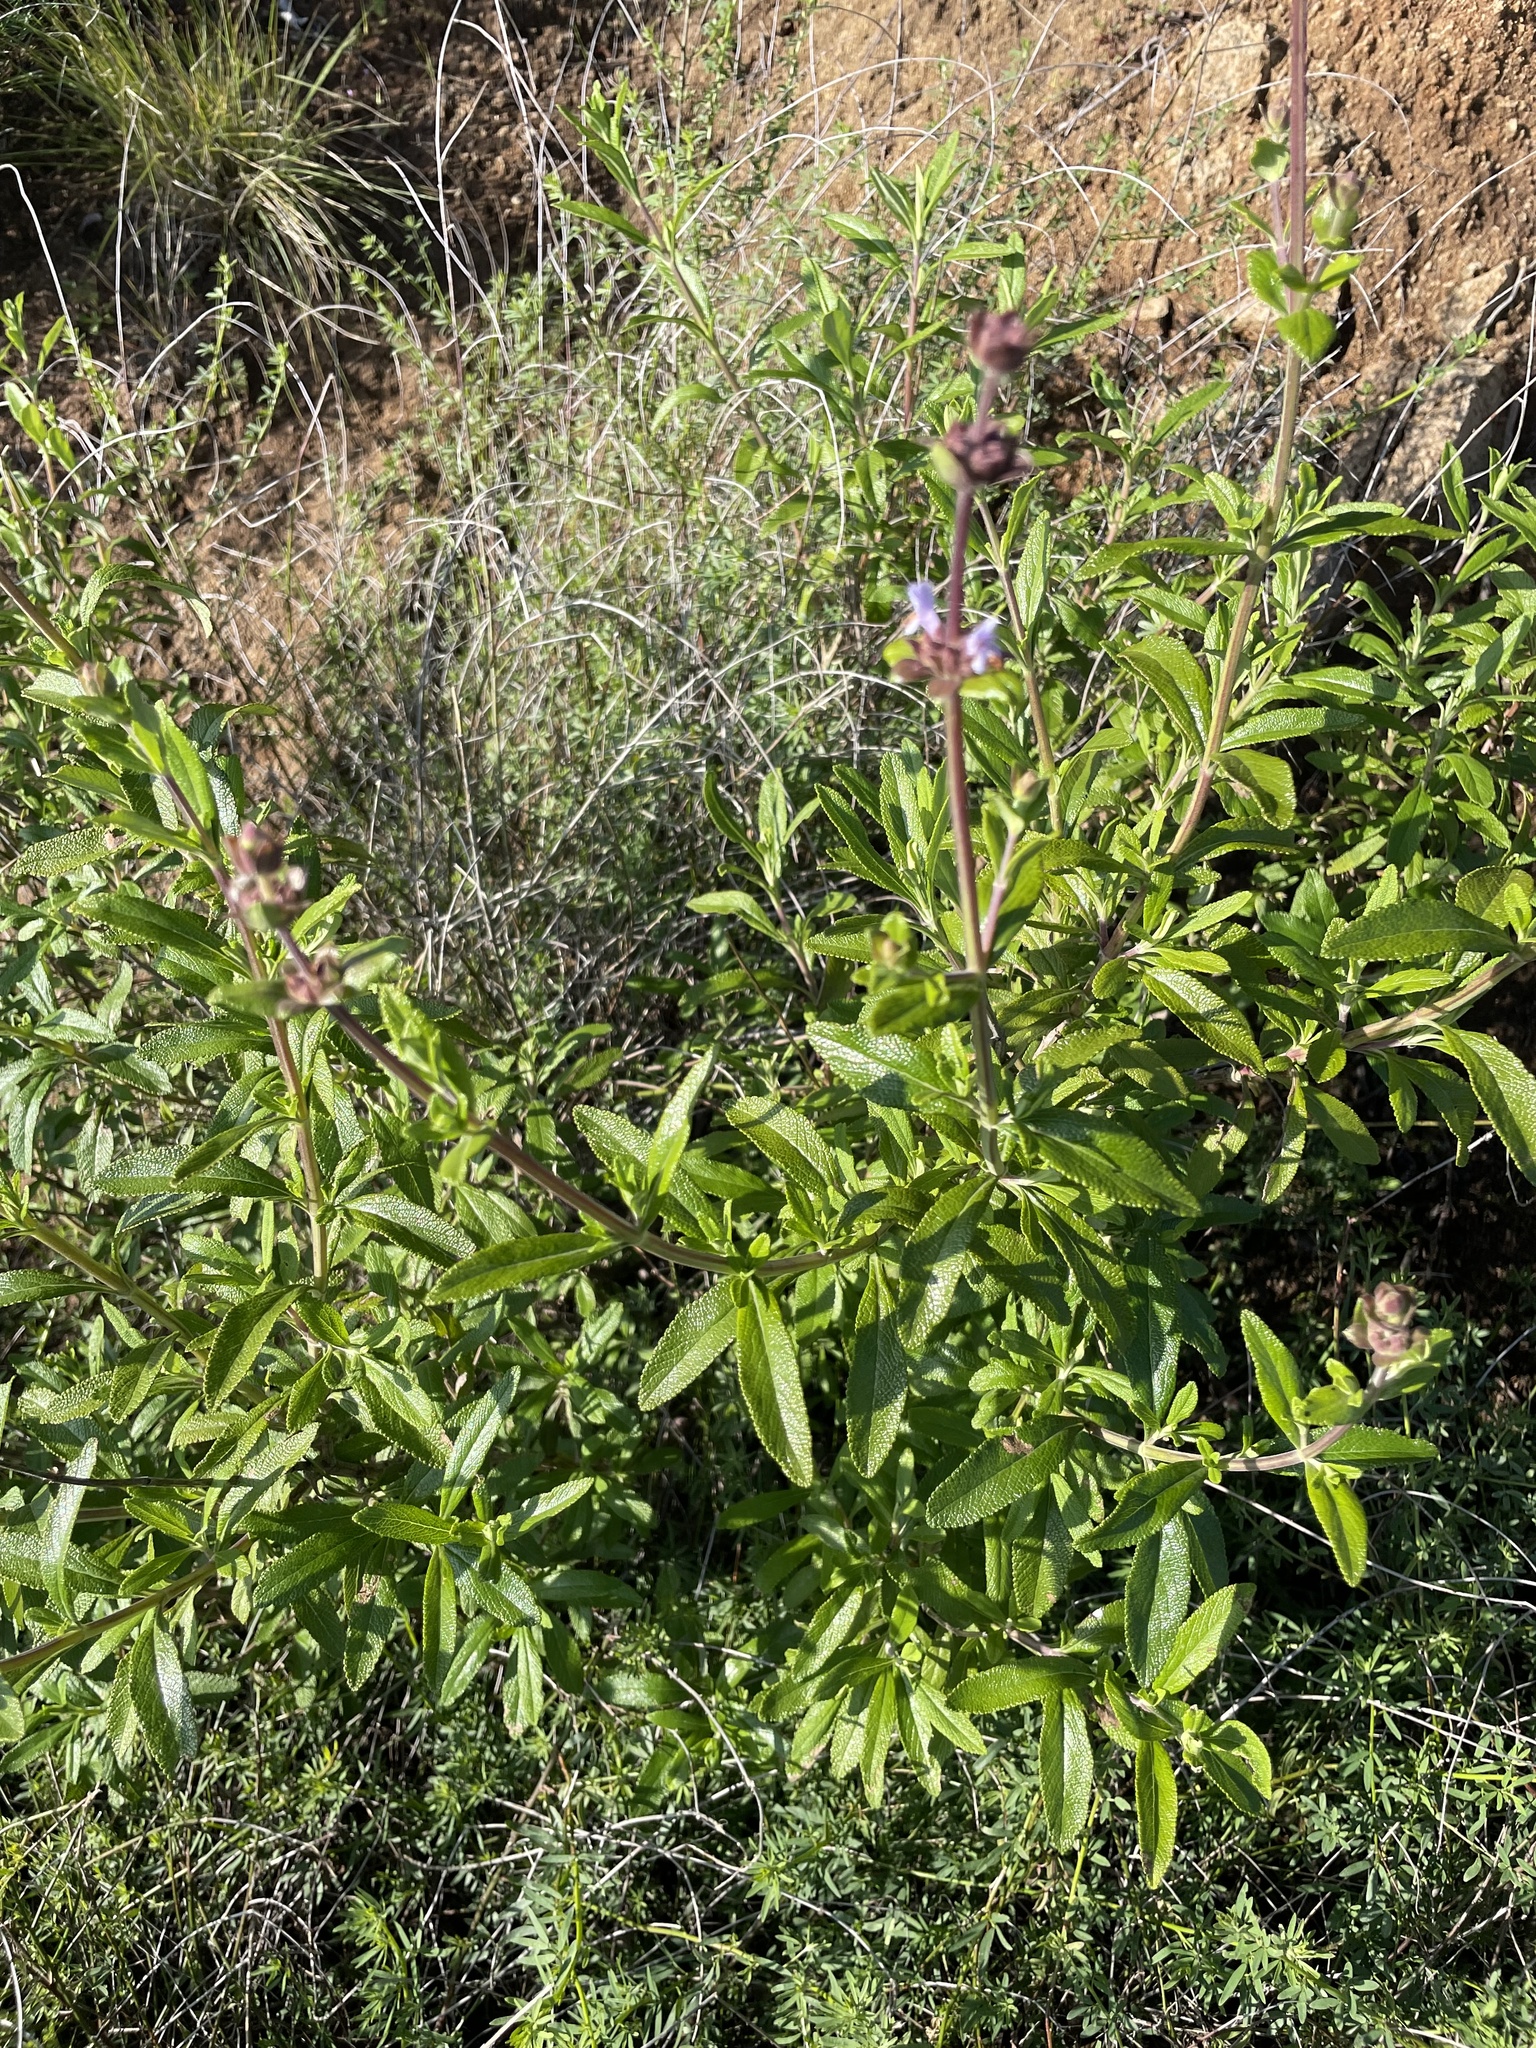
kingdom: Plantae
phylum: Tracheophyta
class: Magnoliopsida
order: Lamiales
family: Lamiaceae
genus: Salvia
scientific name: Salvia mellifera
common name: Black sage
